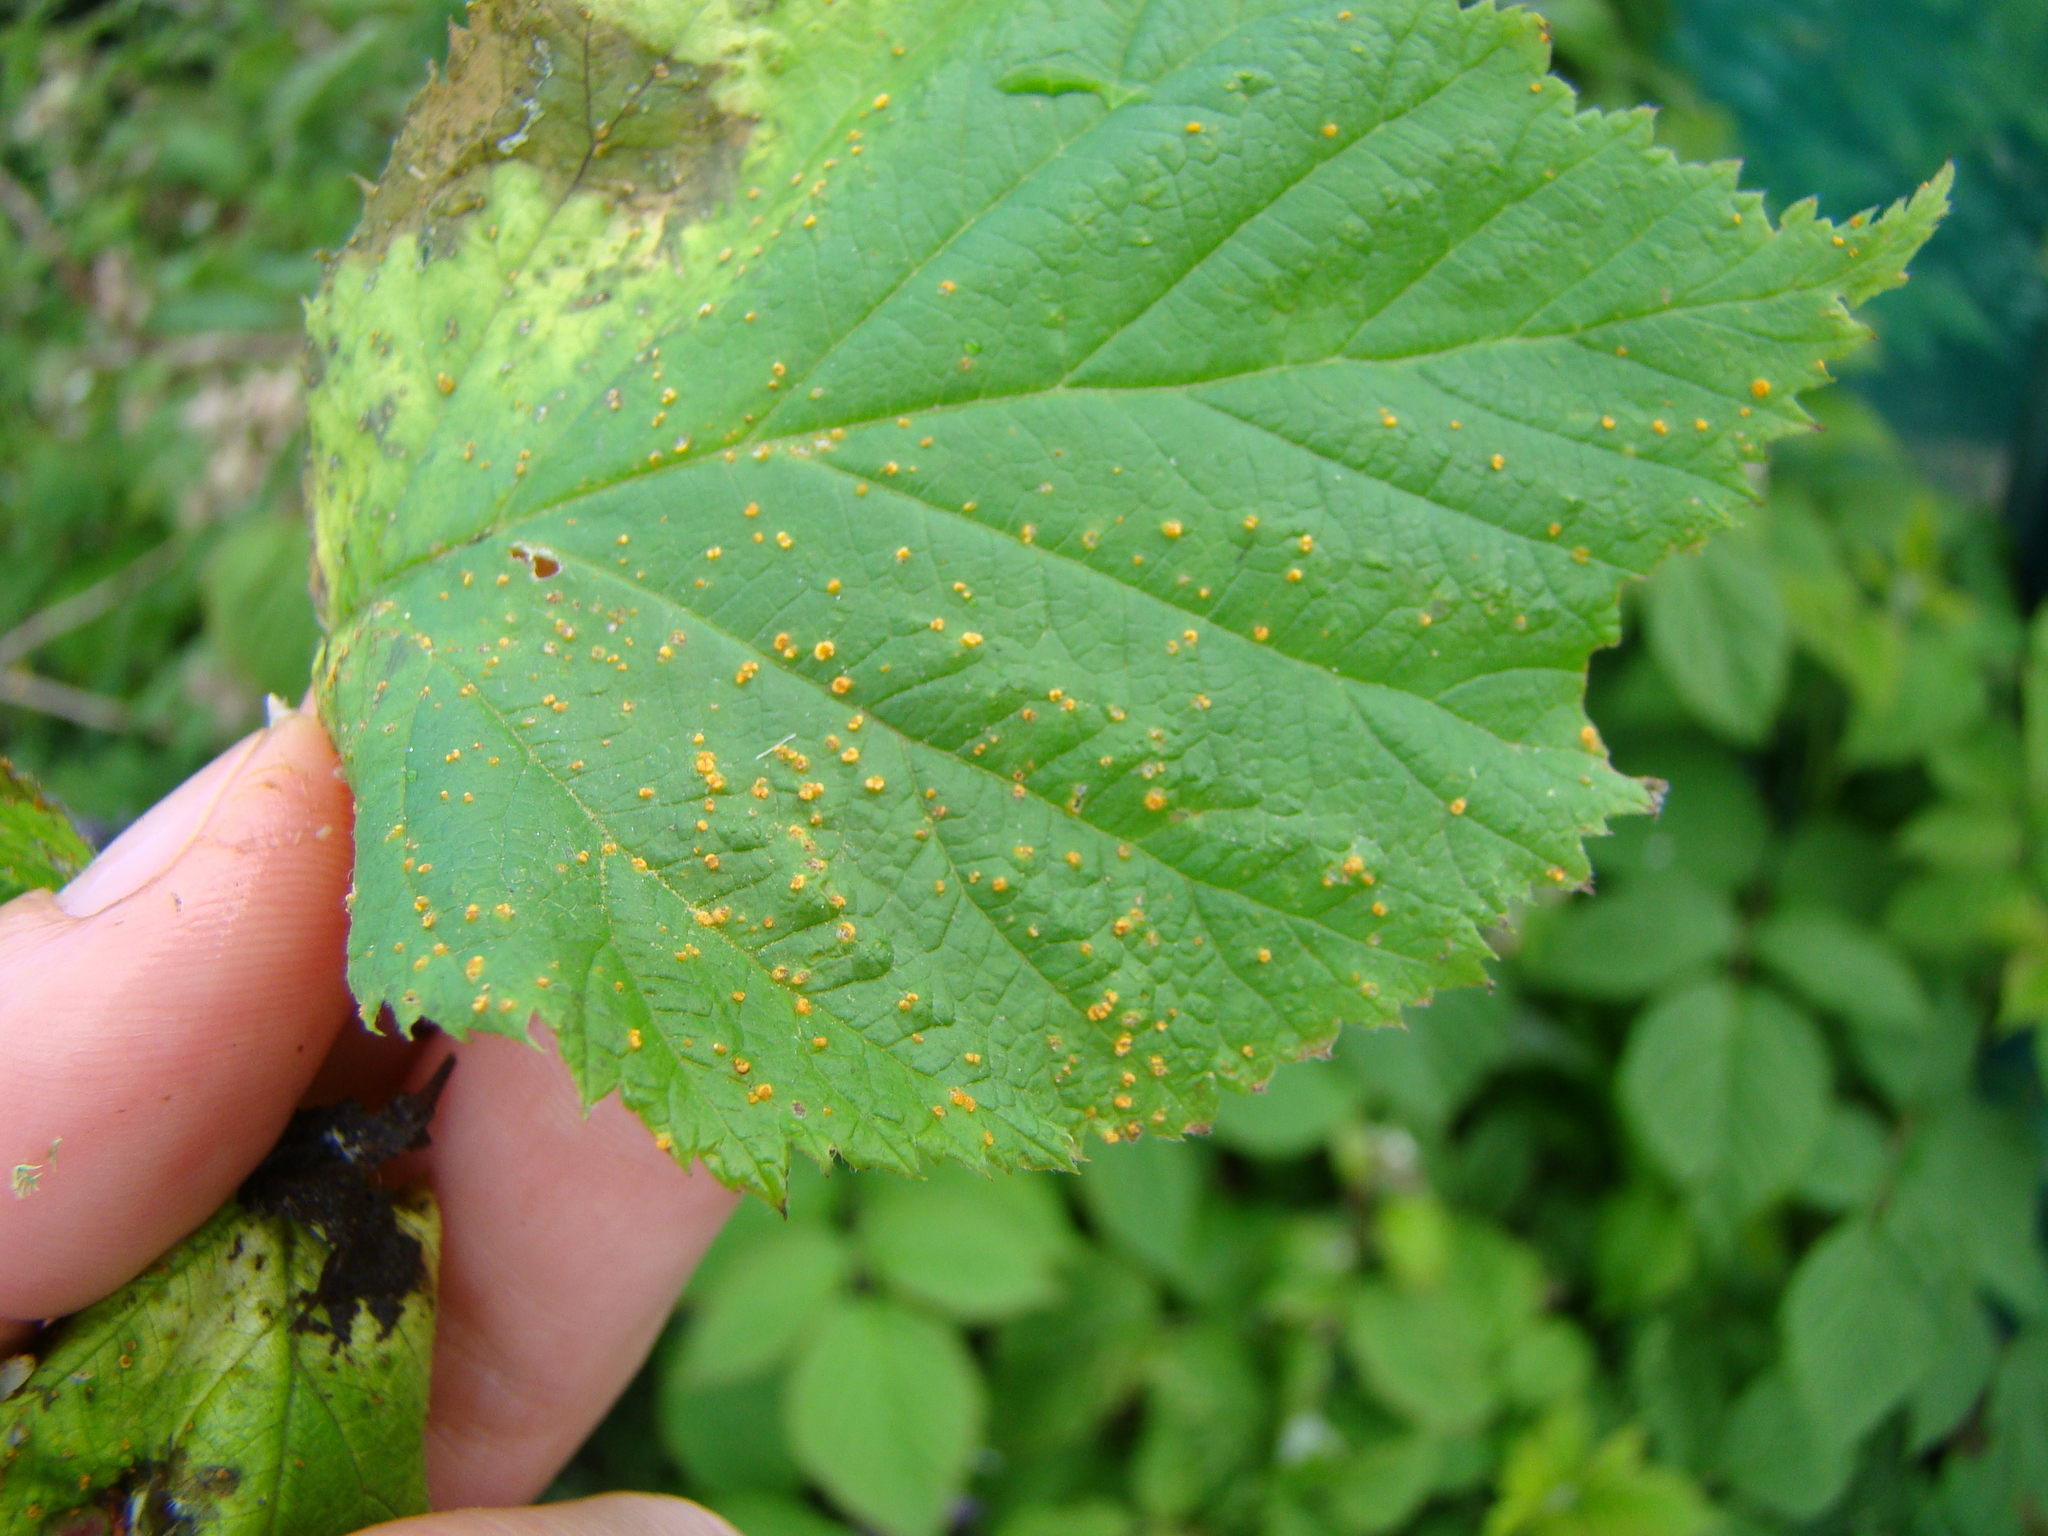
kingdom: Fungi
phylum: Basidiomycota
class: Pucciniomycetes
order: Pucciniales
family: Phragmidiaceae
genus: Phragmidium
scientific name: Phragmidium rubi-idaei
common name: Raspberry rust
